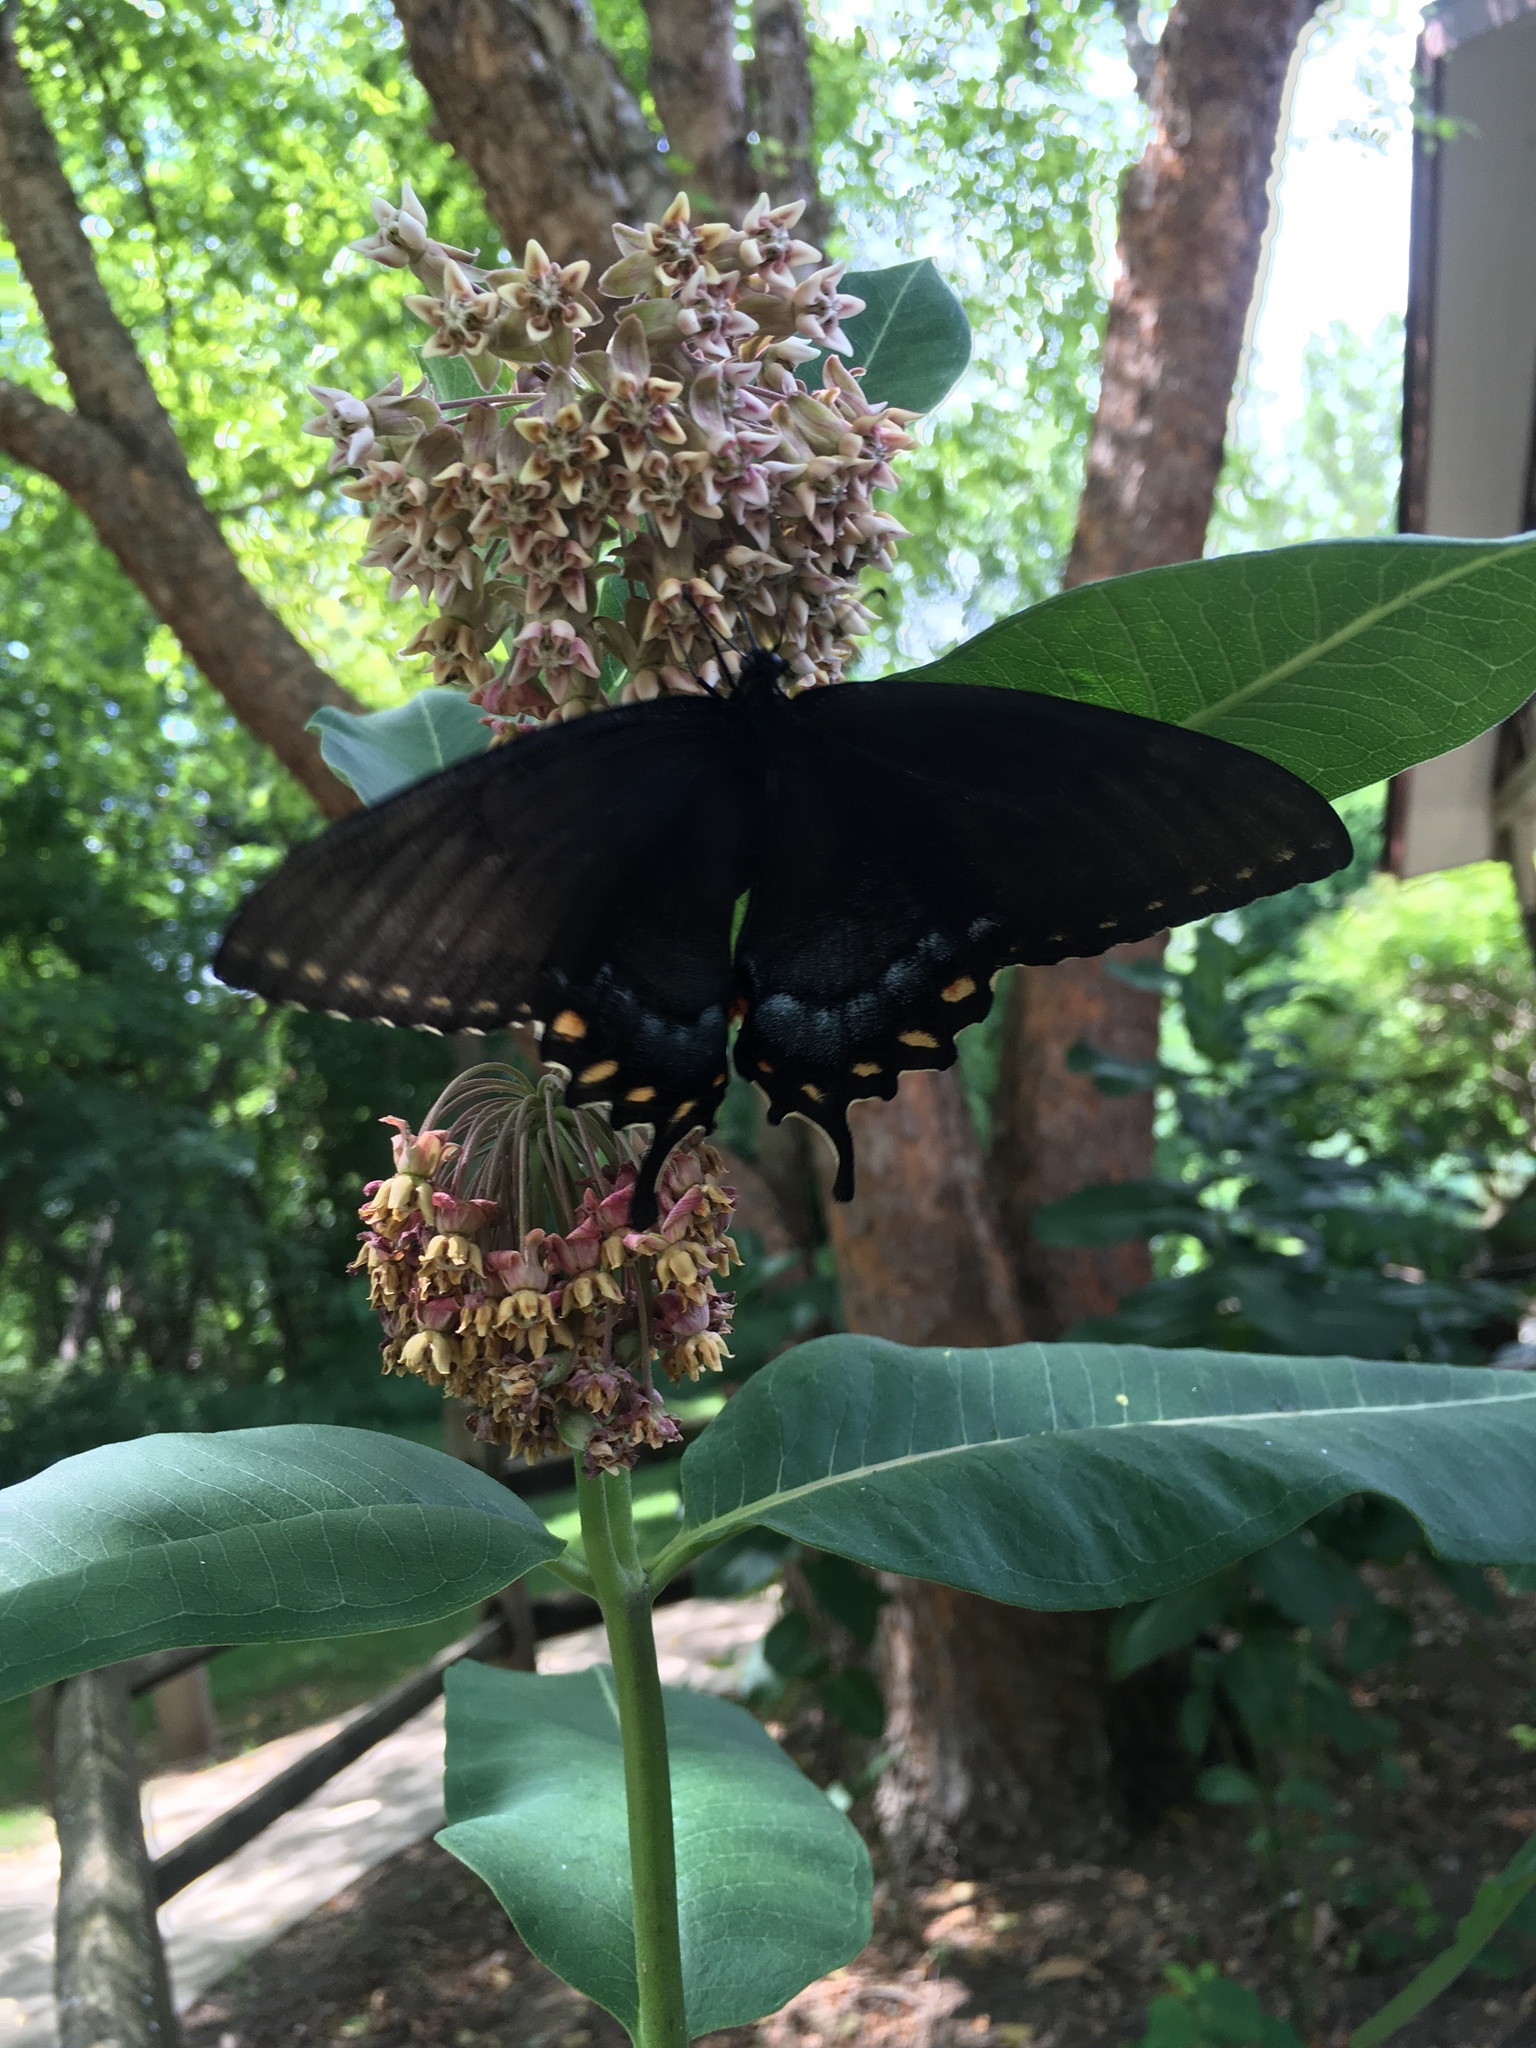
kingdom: Animalia
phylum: Arthropoda
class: Insecta
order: Lepidoptera
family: Papilionidae
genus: Papilio
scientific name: Papilio glaucus
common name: Tiger swallowtail
